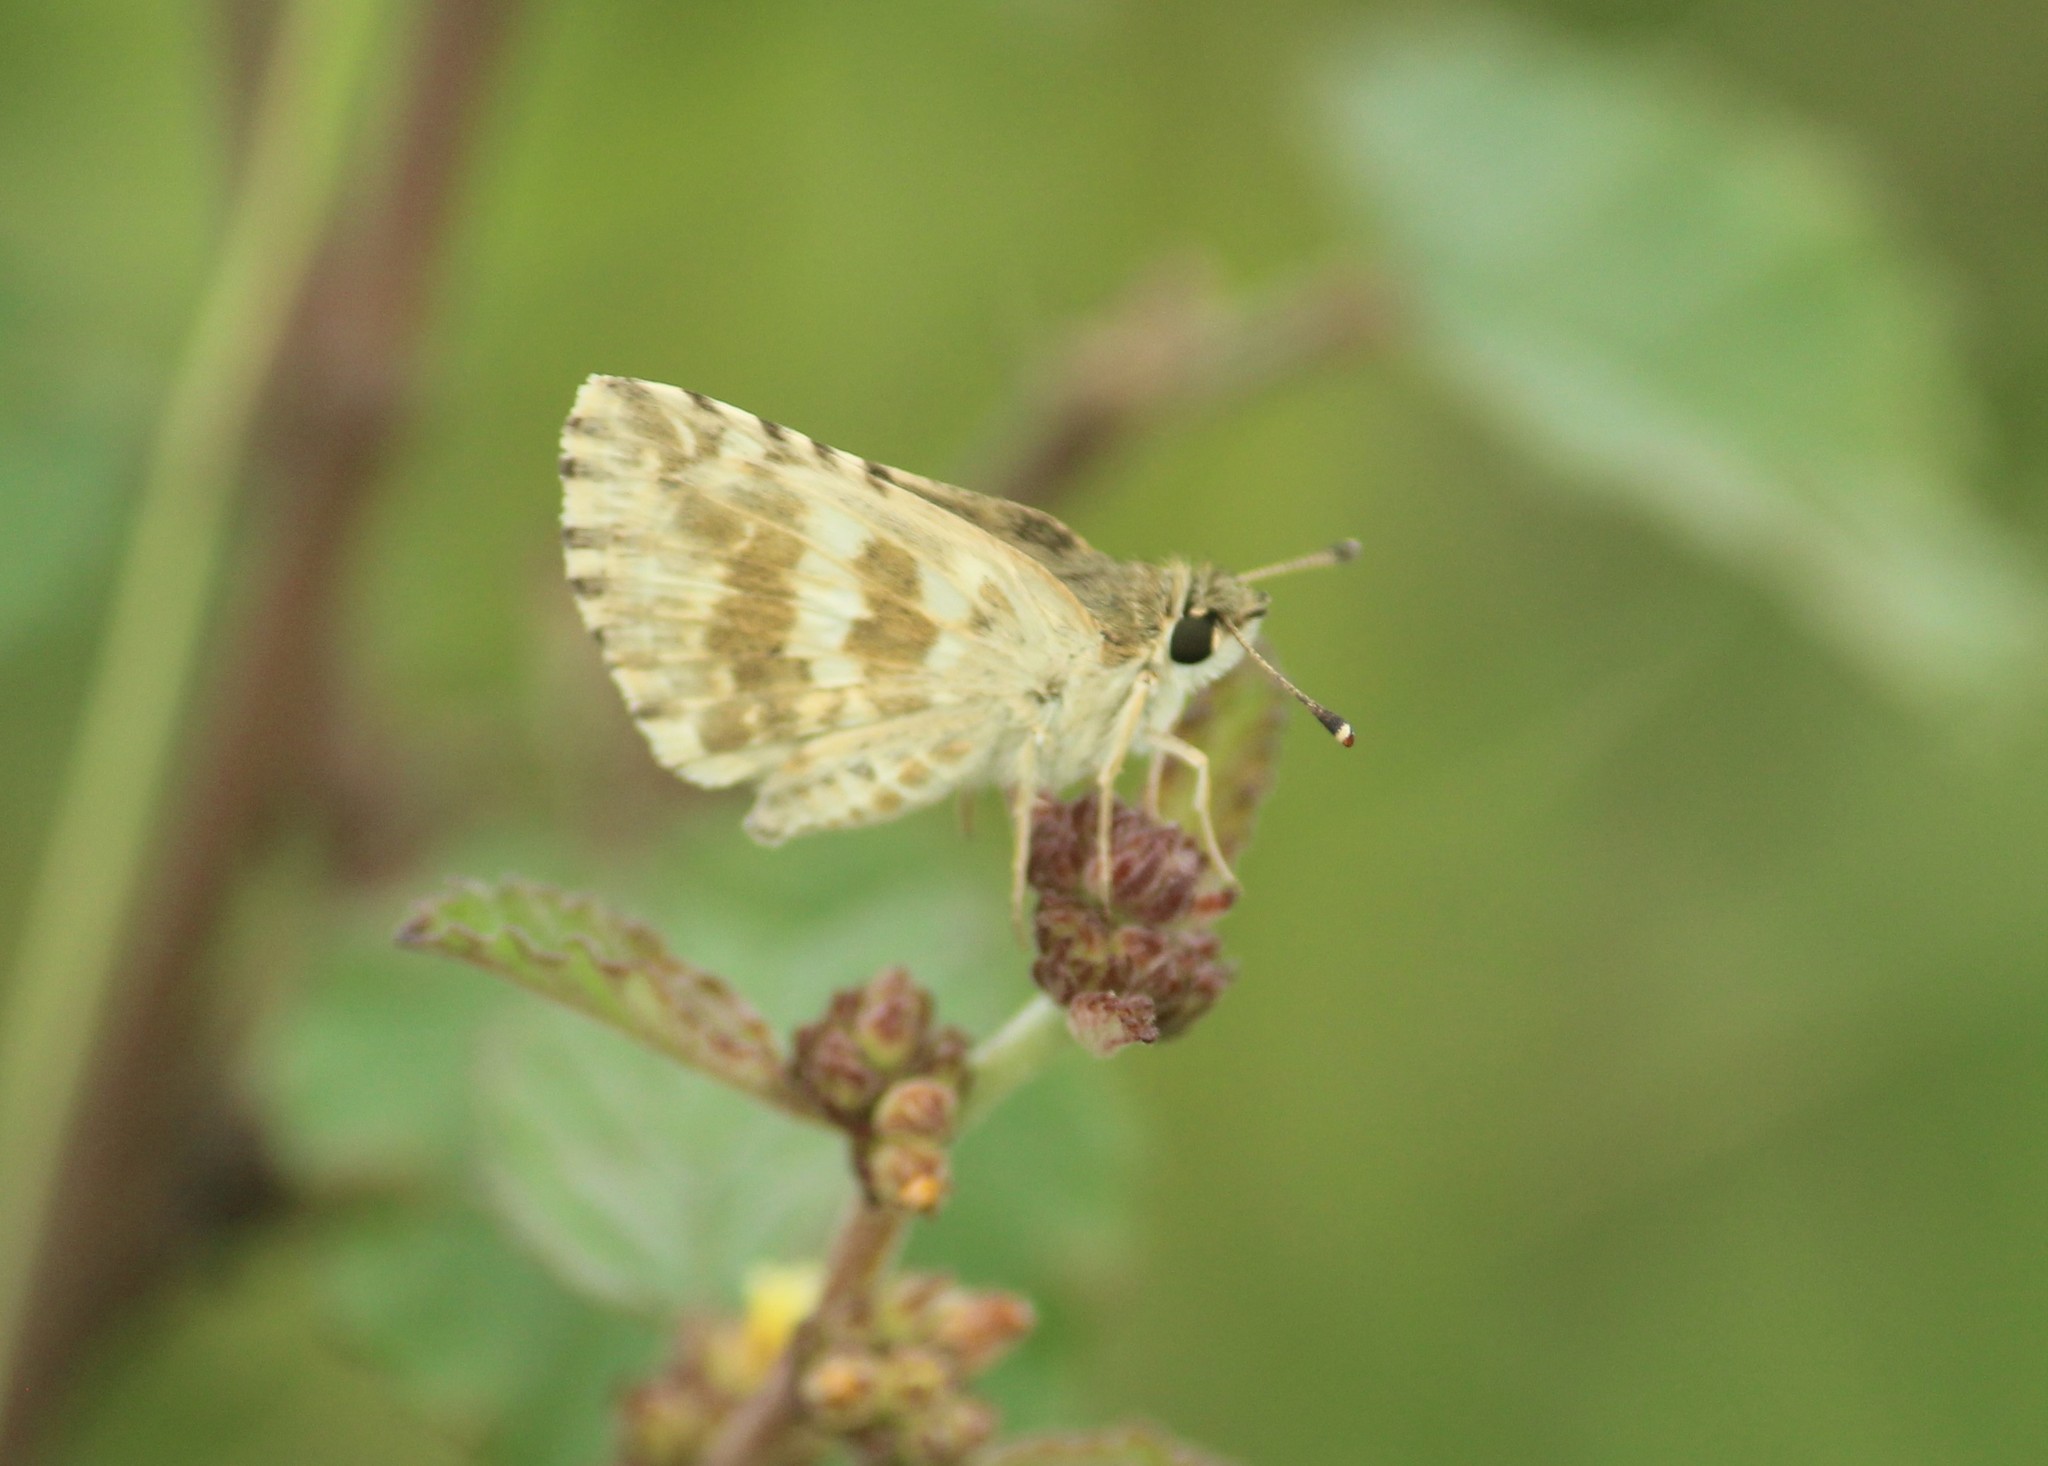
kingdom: Animalia
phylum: Arthropoda
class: Insecta
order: Lepidoptera
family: Hesperiidae
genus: Spialia
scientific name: Spialia galba
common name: Indian skipper
